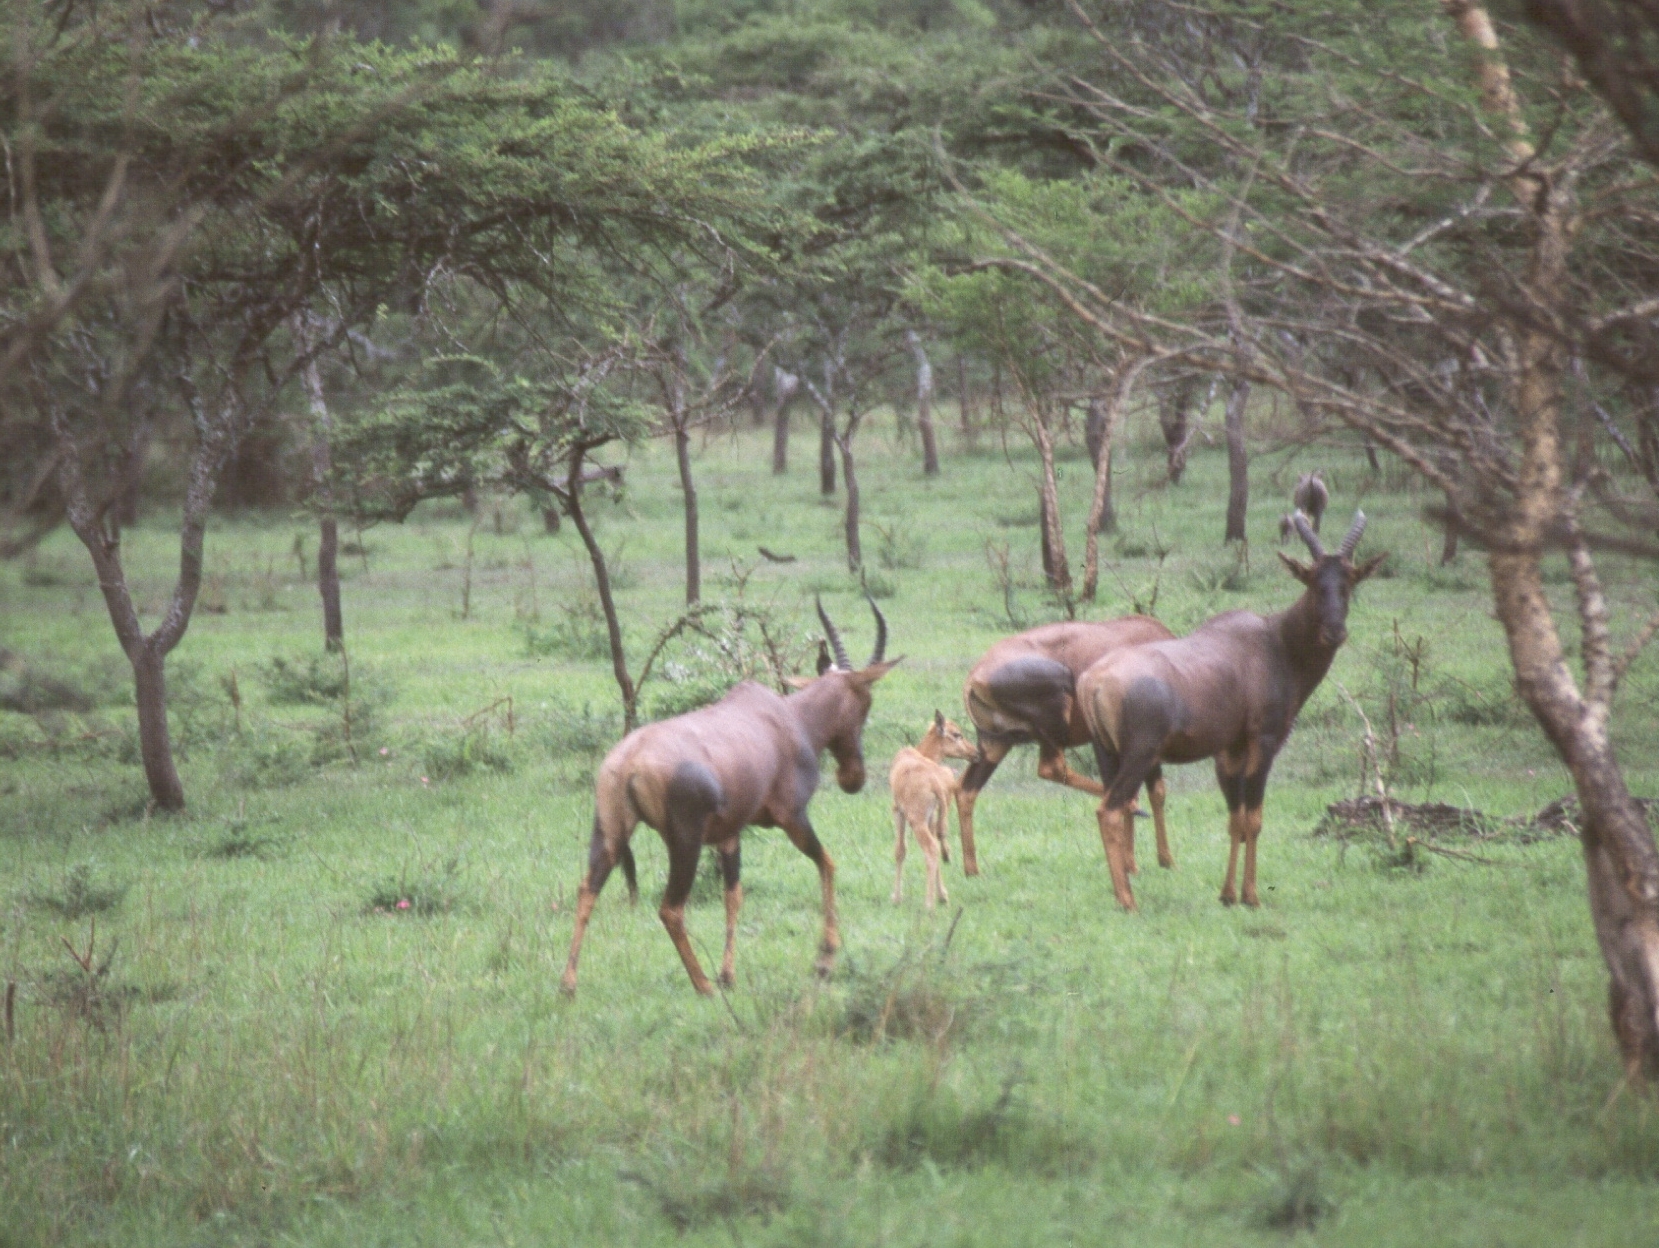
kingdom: Animalia
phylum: Chordata
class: Mammalia
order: Artiodactyla
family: Bovidae
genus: Damaliscus
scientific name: Damaliscus korrigum
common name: Topi
